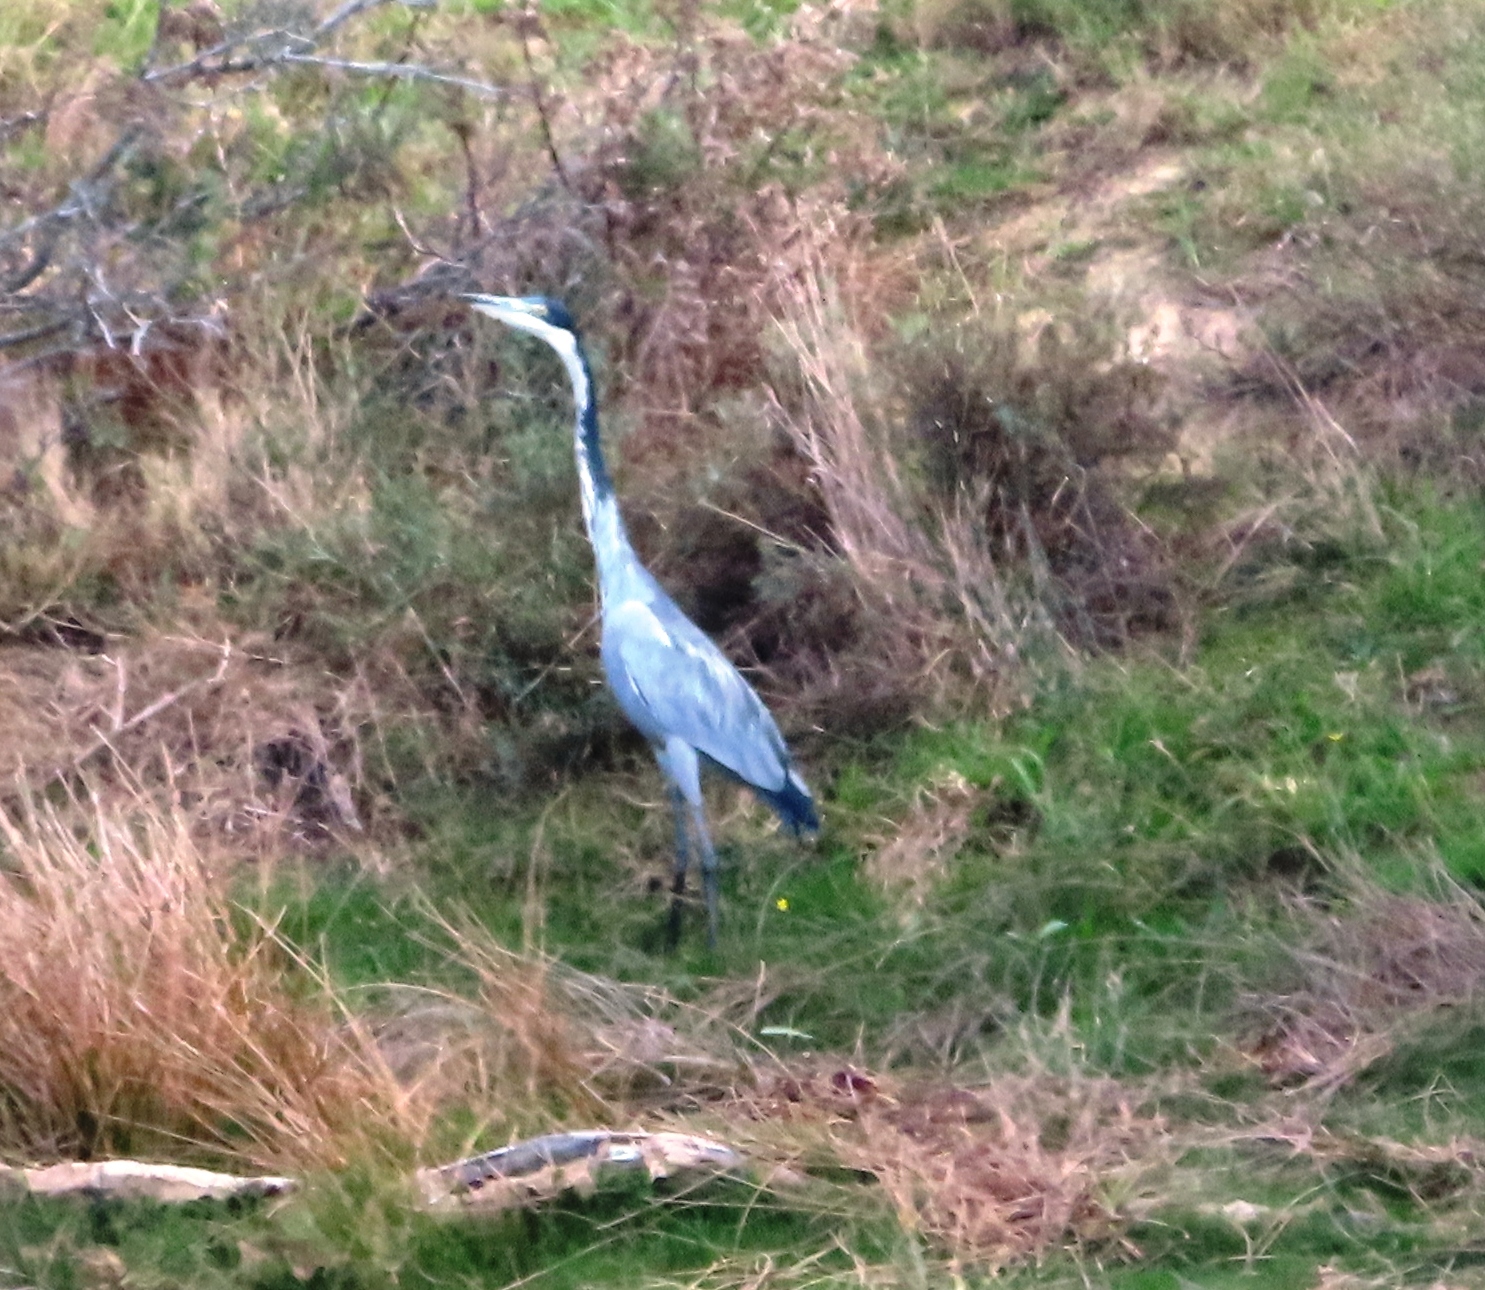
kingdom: Animalia
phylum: Chordata
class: Aves
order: Pelecaniformes
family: Ardeidae
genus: Ardea
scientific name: Ardea melanocephala
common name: Black-headed heron
